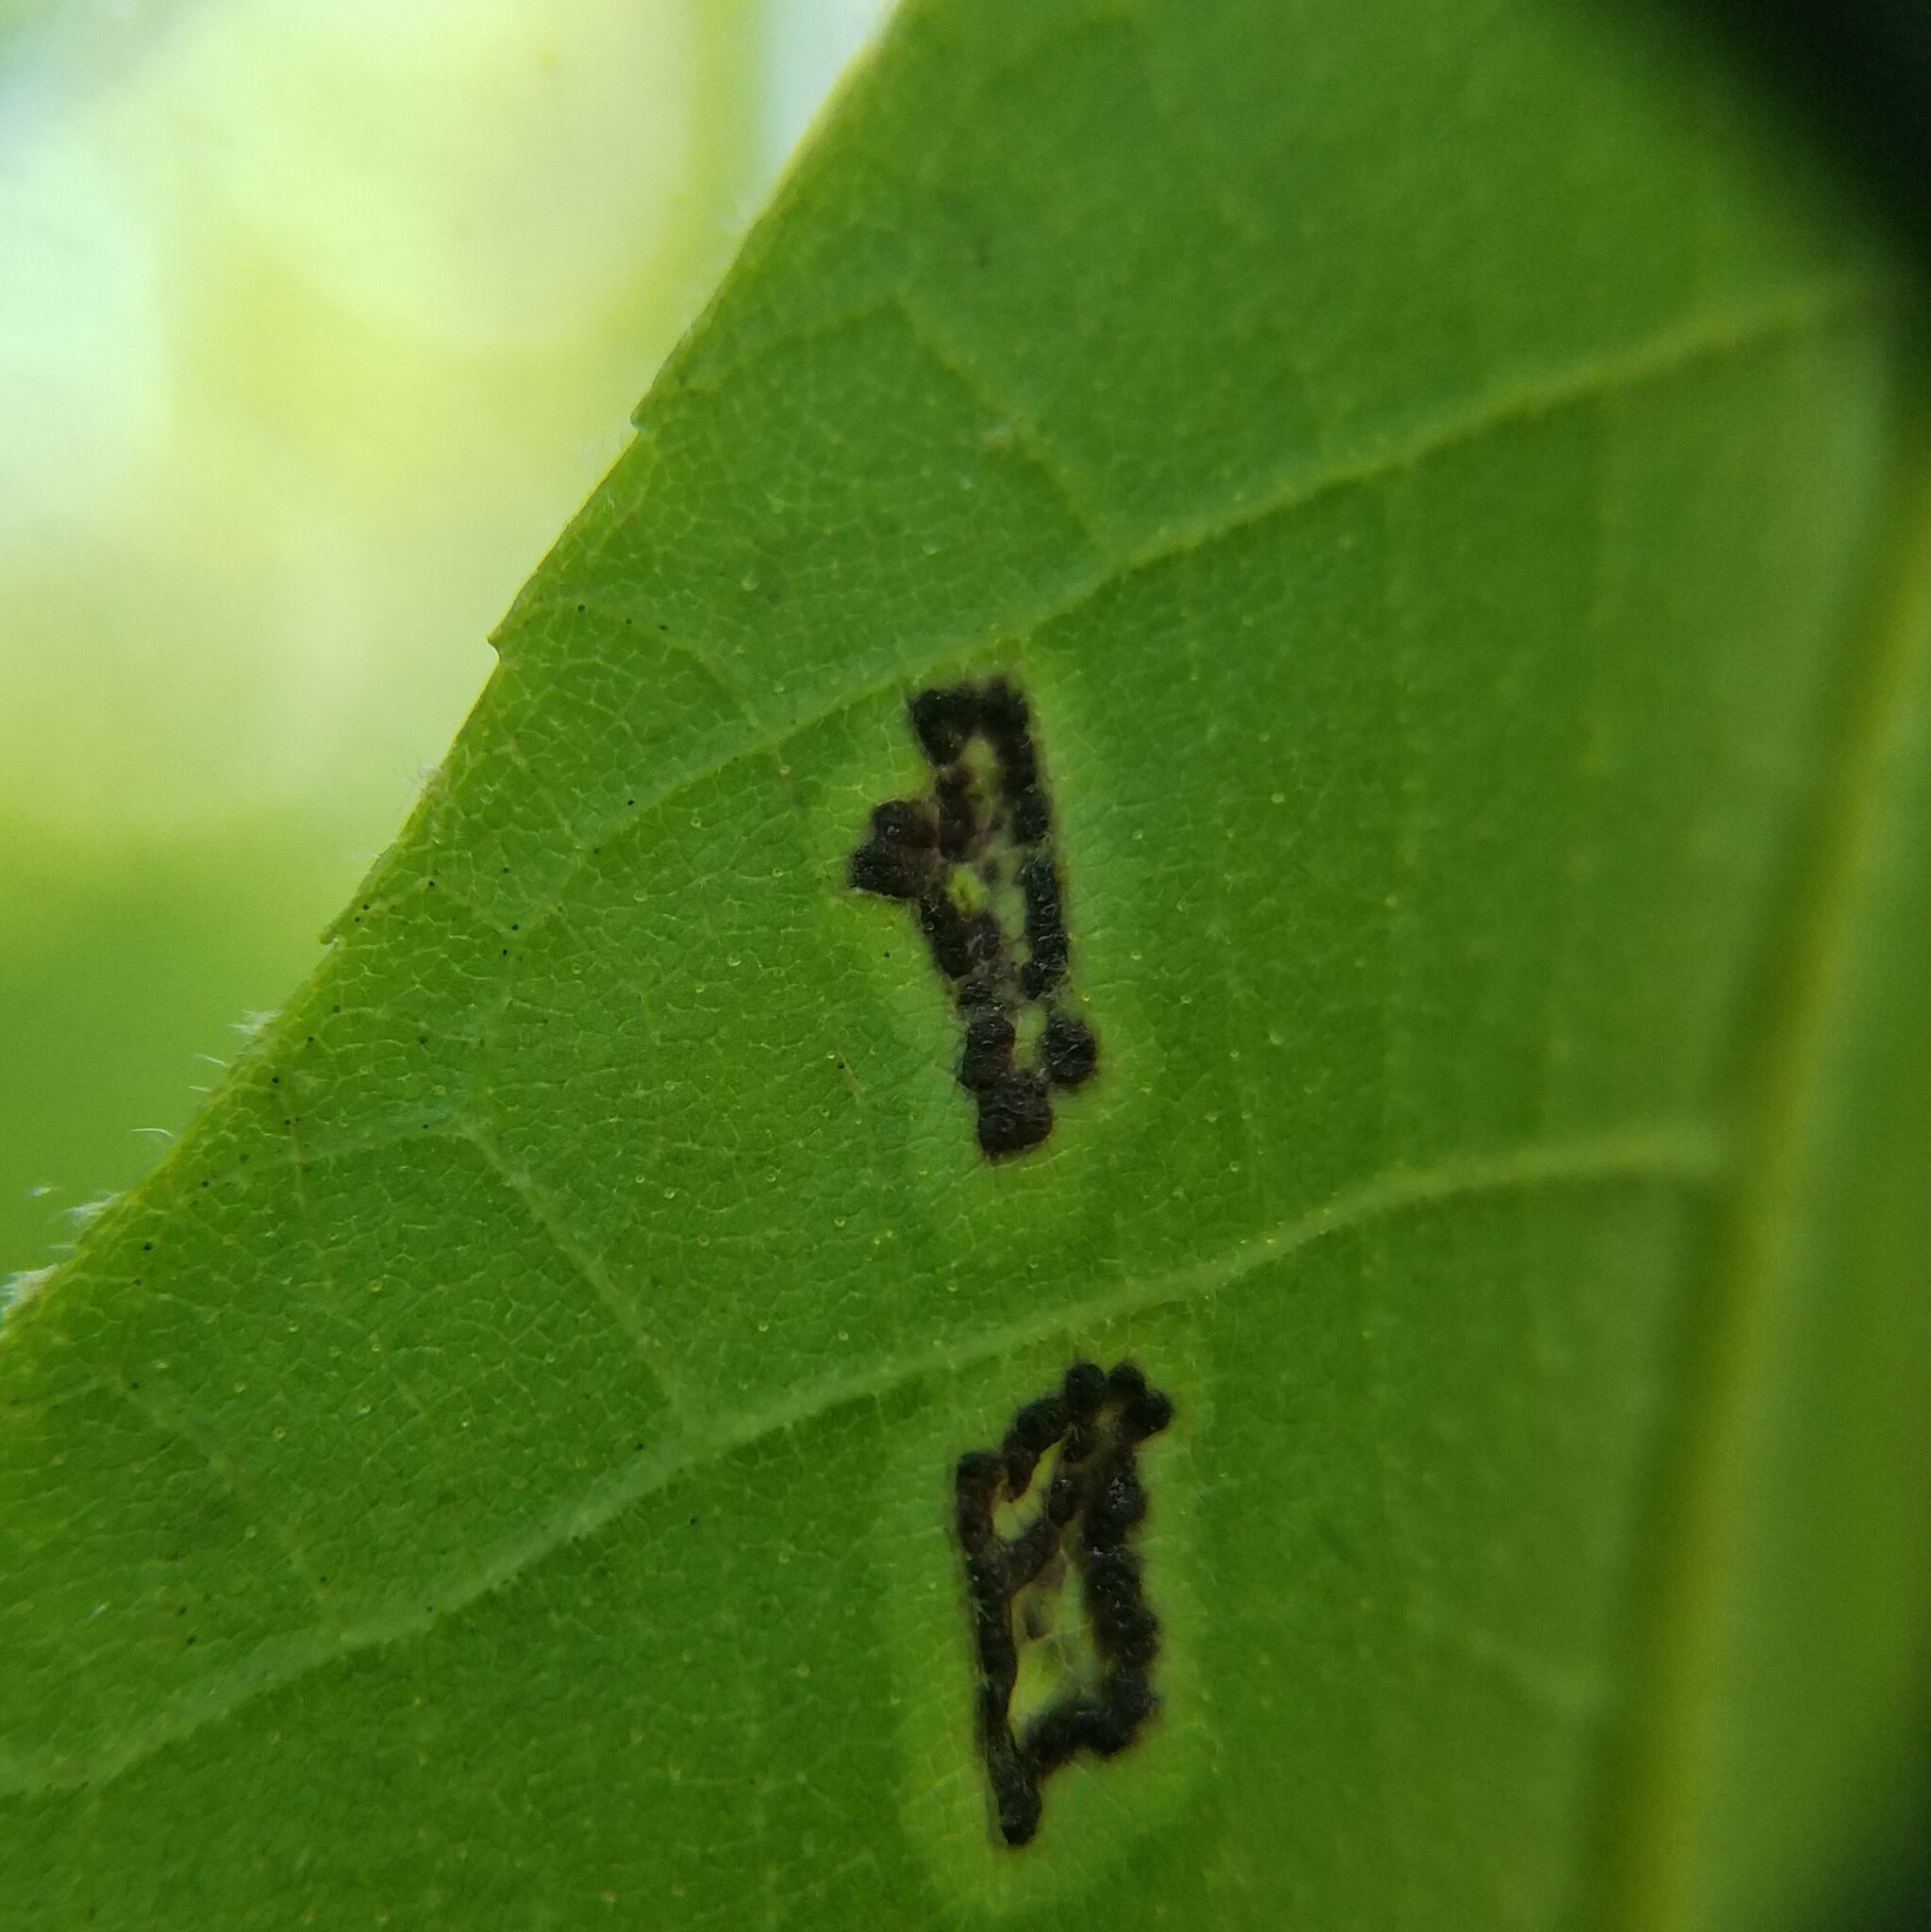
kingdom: Animalia
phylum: Arthropoda
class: Insecta
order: Diptera
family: Cecidomyiidae
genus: Gliaspilota
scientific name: Gliaspilota glutinosa
